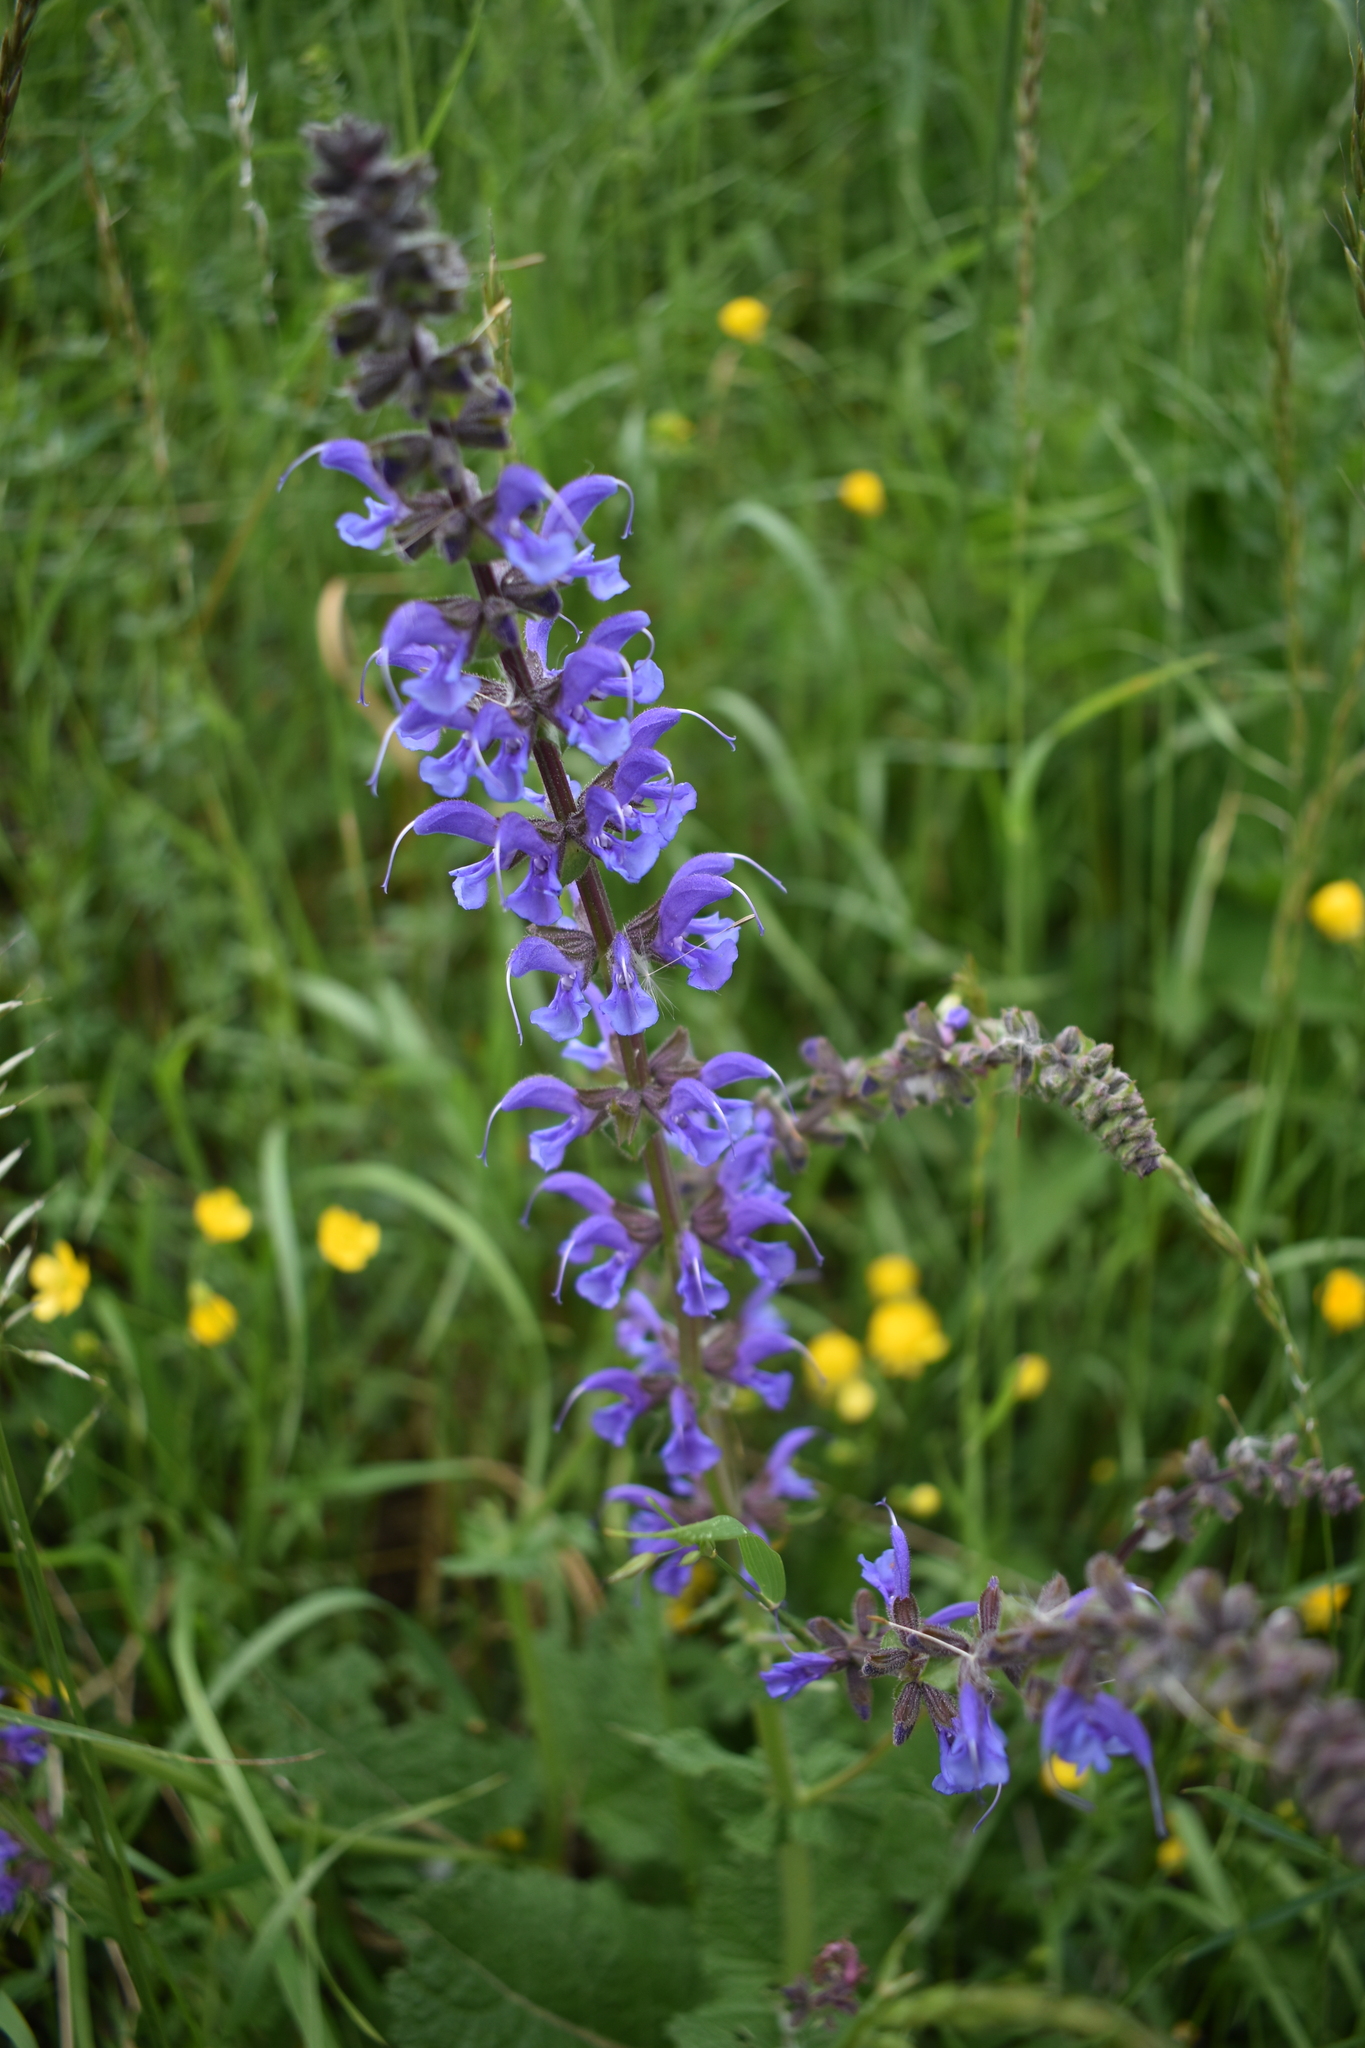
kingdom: Plantae
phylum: Tracheophyta
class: Magnoliopsida
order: Lamiales
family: Lamiaceae
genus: Salvia
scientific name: Salvia pratensis
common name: Meadow sage
